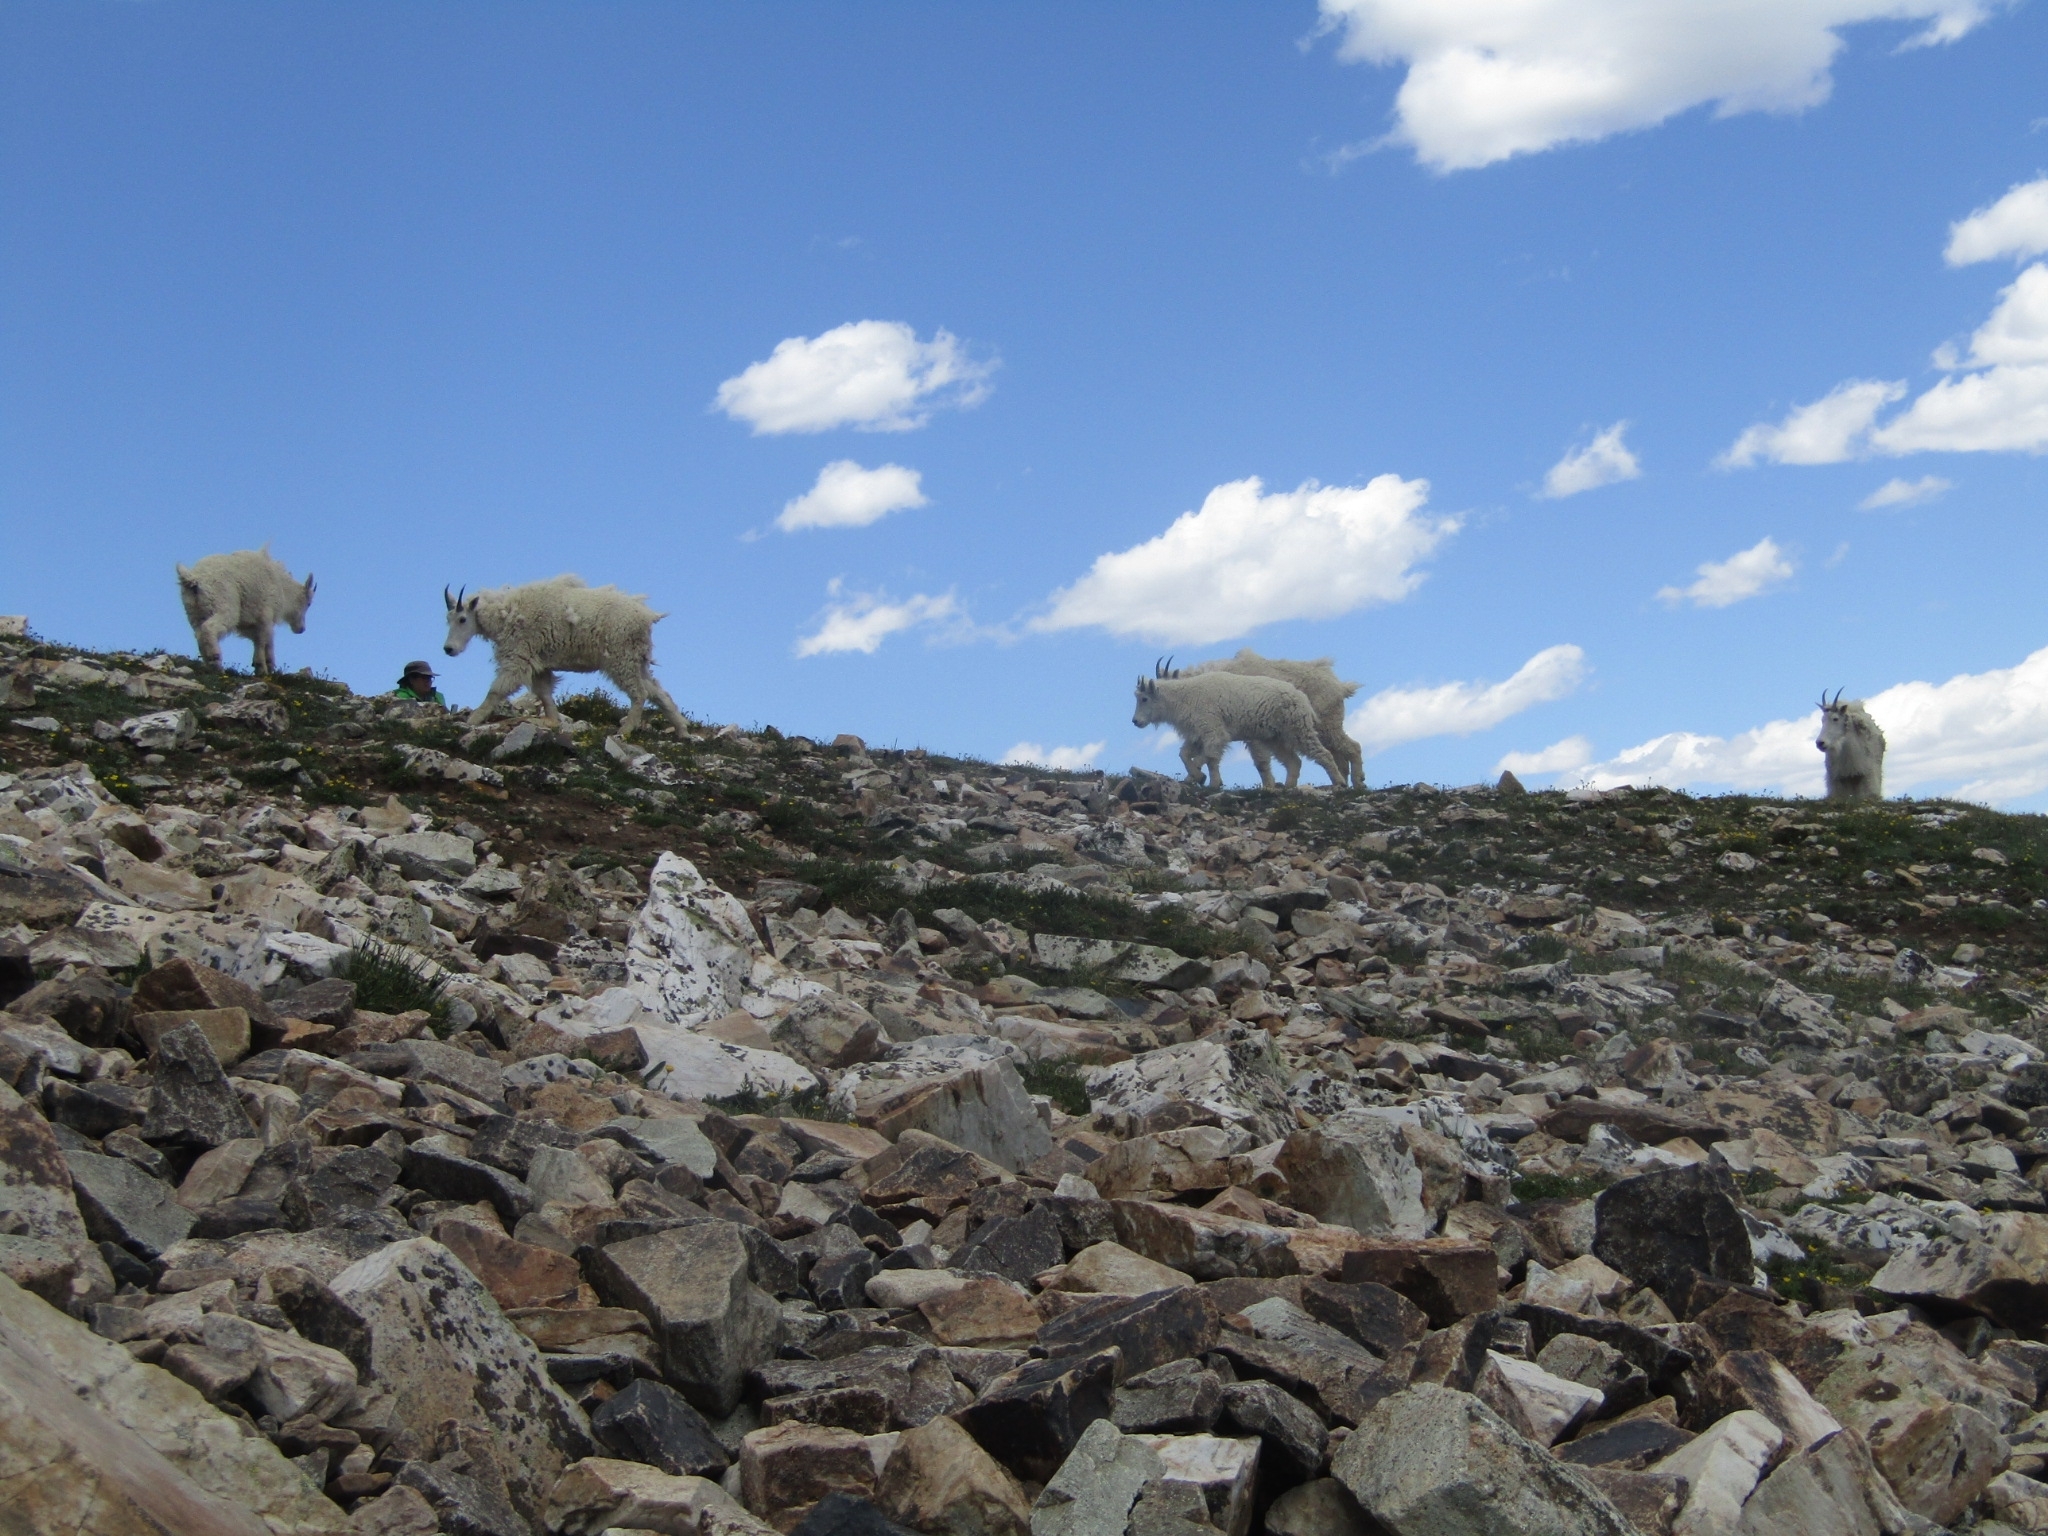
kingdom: Animalia
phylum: Chordata
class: Mammalia
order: Artiodactyla
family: Bovidae
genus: Oreamnos
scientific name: Oreamnos americanus
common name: Mountain goat
